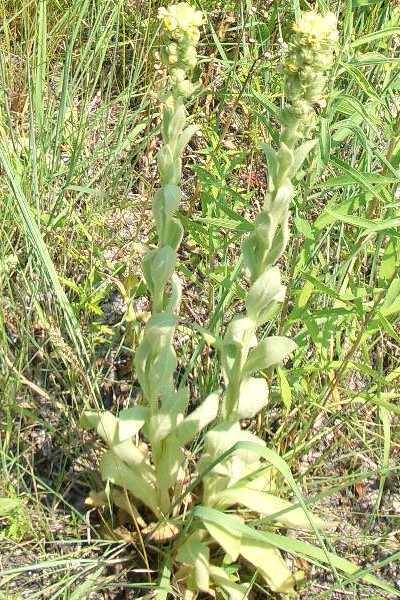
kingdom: Plantae
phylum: Tracheophyta
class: Magnoliopsida
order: Lamiales
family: Scrophulariaceae
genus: Verbascum
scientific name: Verbascum thapsus
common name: Common mullein
